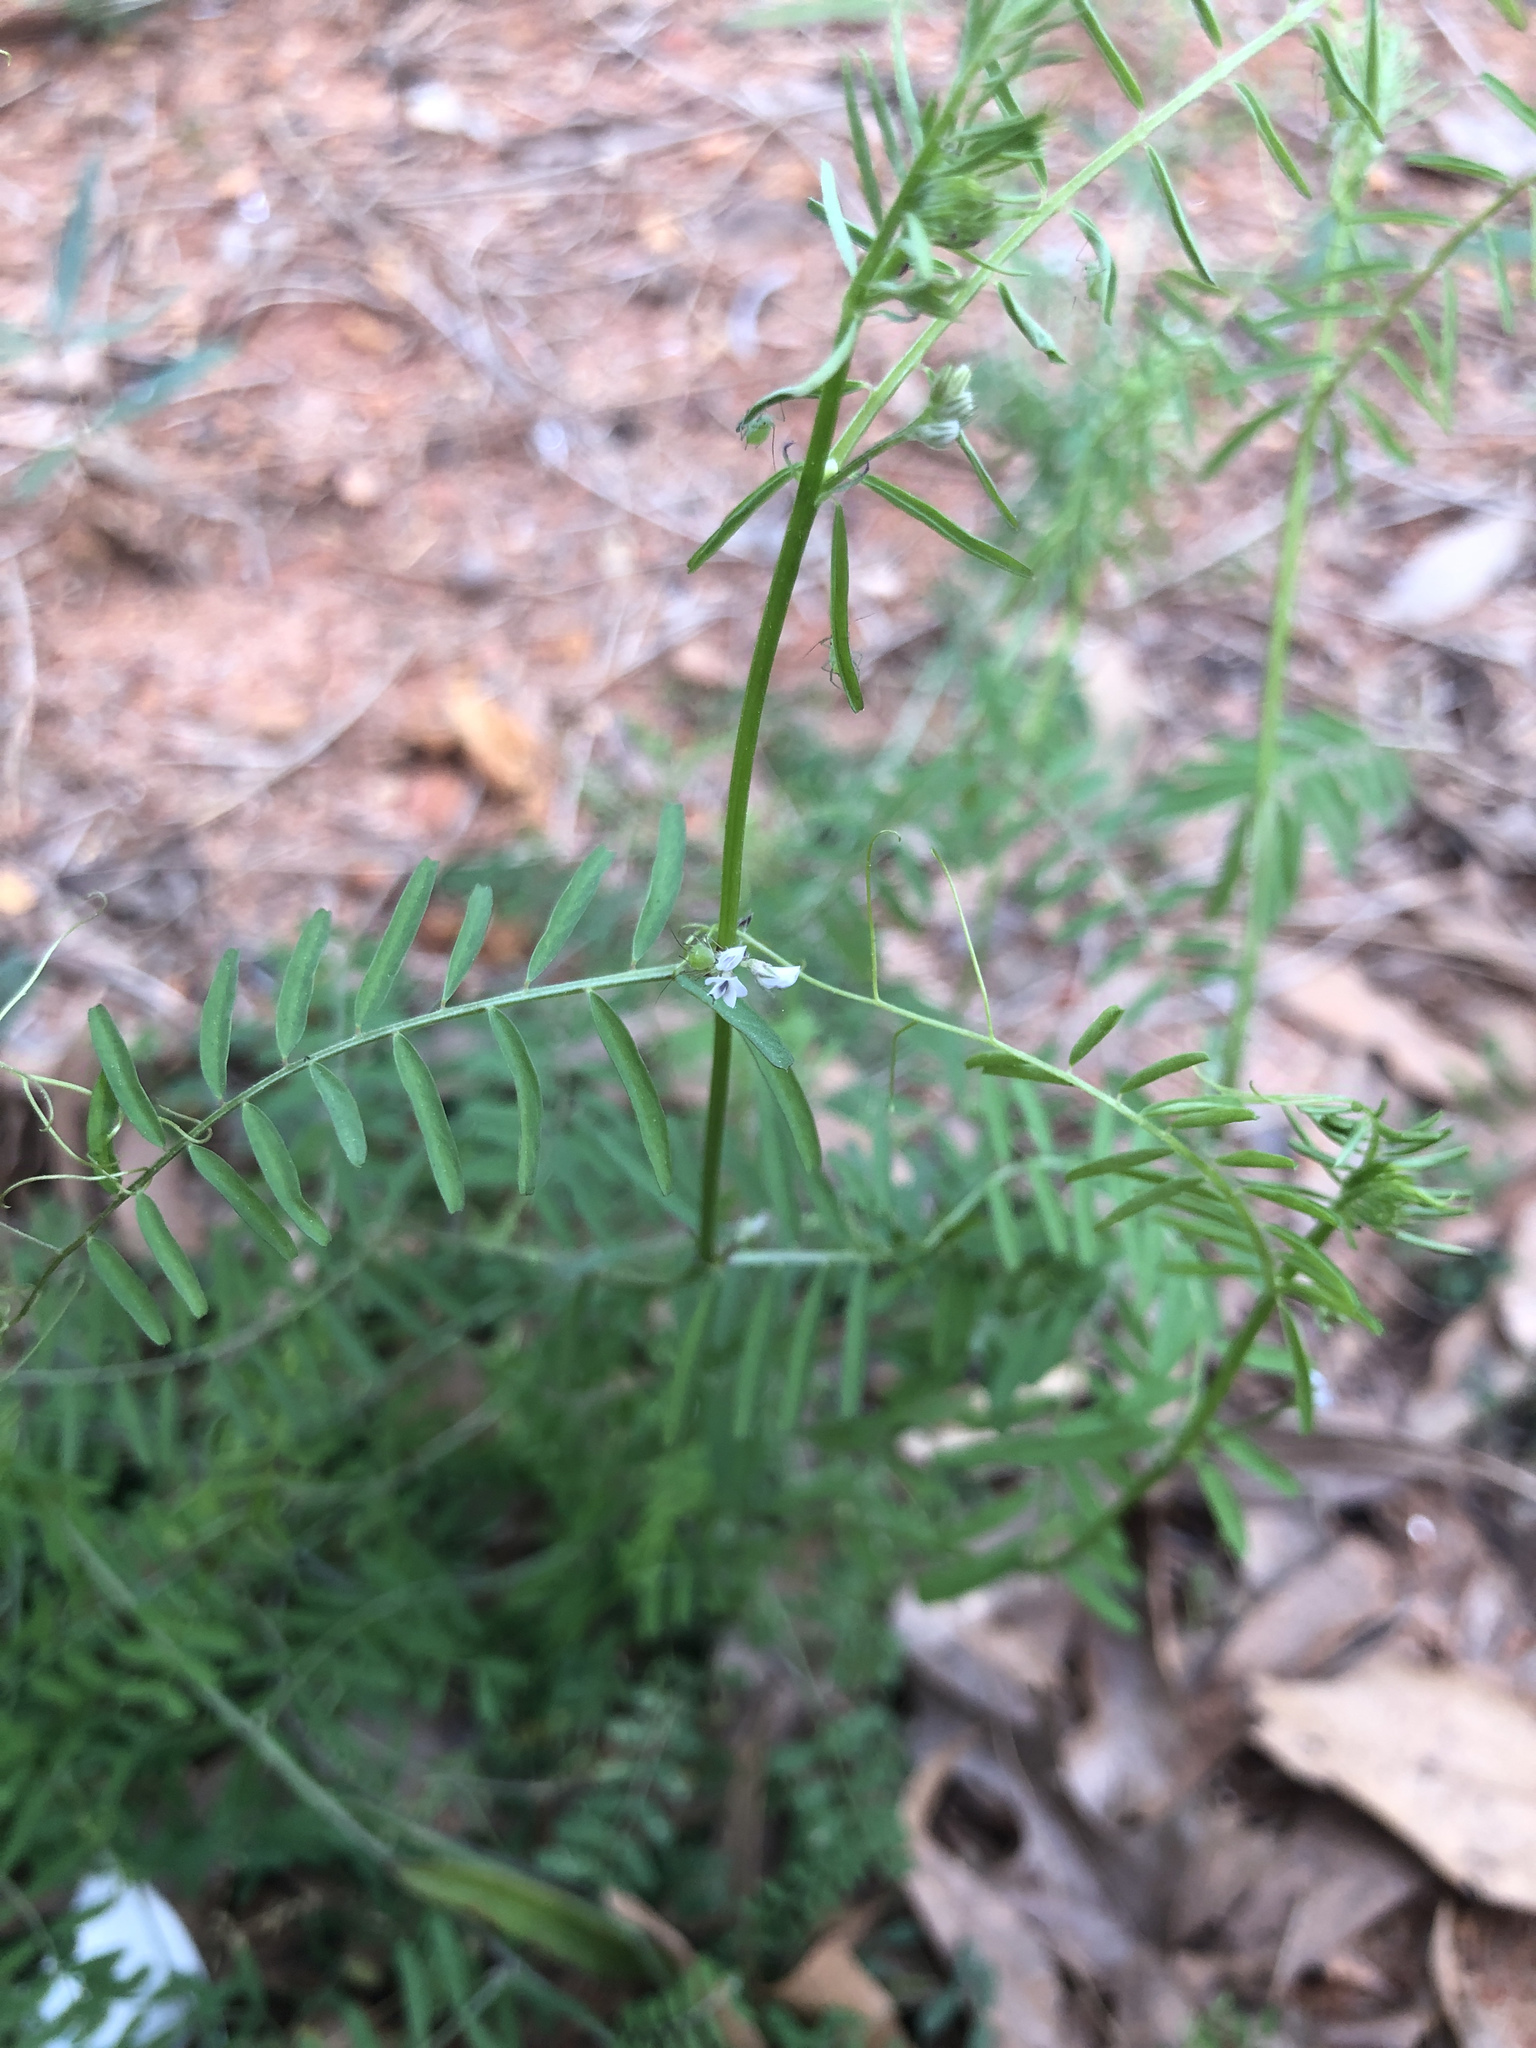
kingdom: Plantae
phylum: Tracheophyta
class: Magnoliopsida
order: Fabales
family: Fabaceae
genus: Vicia
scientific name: Vicia hirsuta
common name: Tiny vetch
